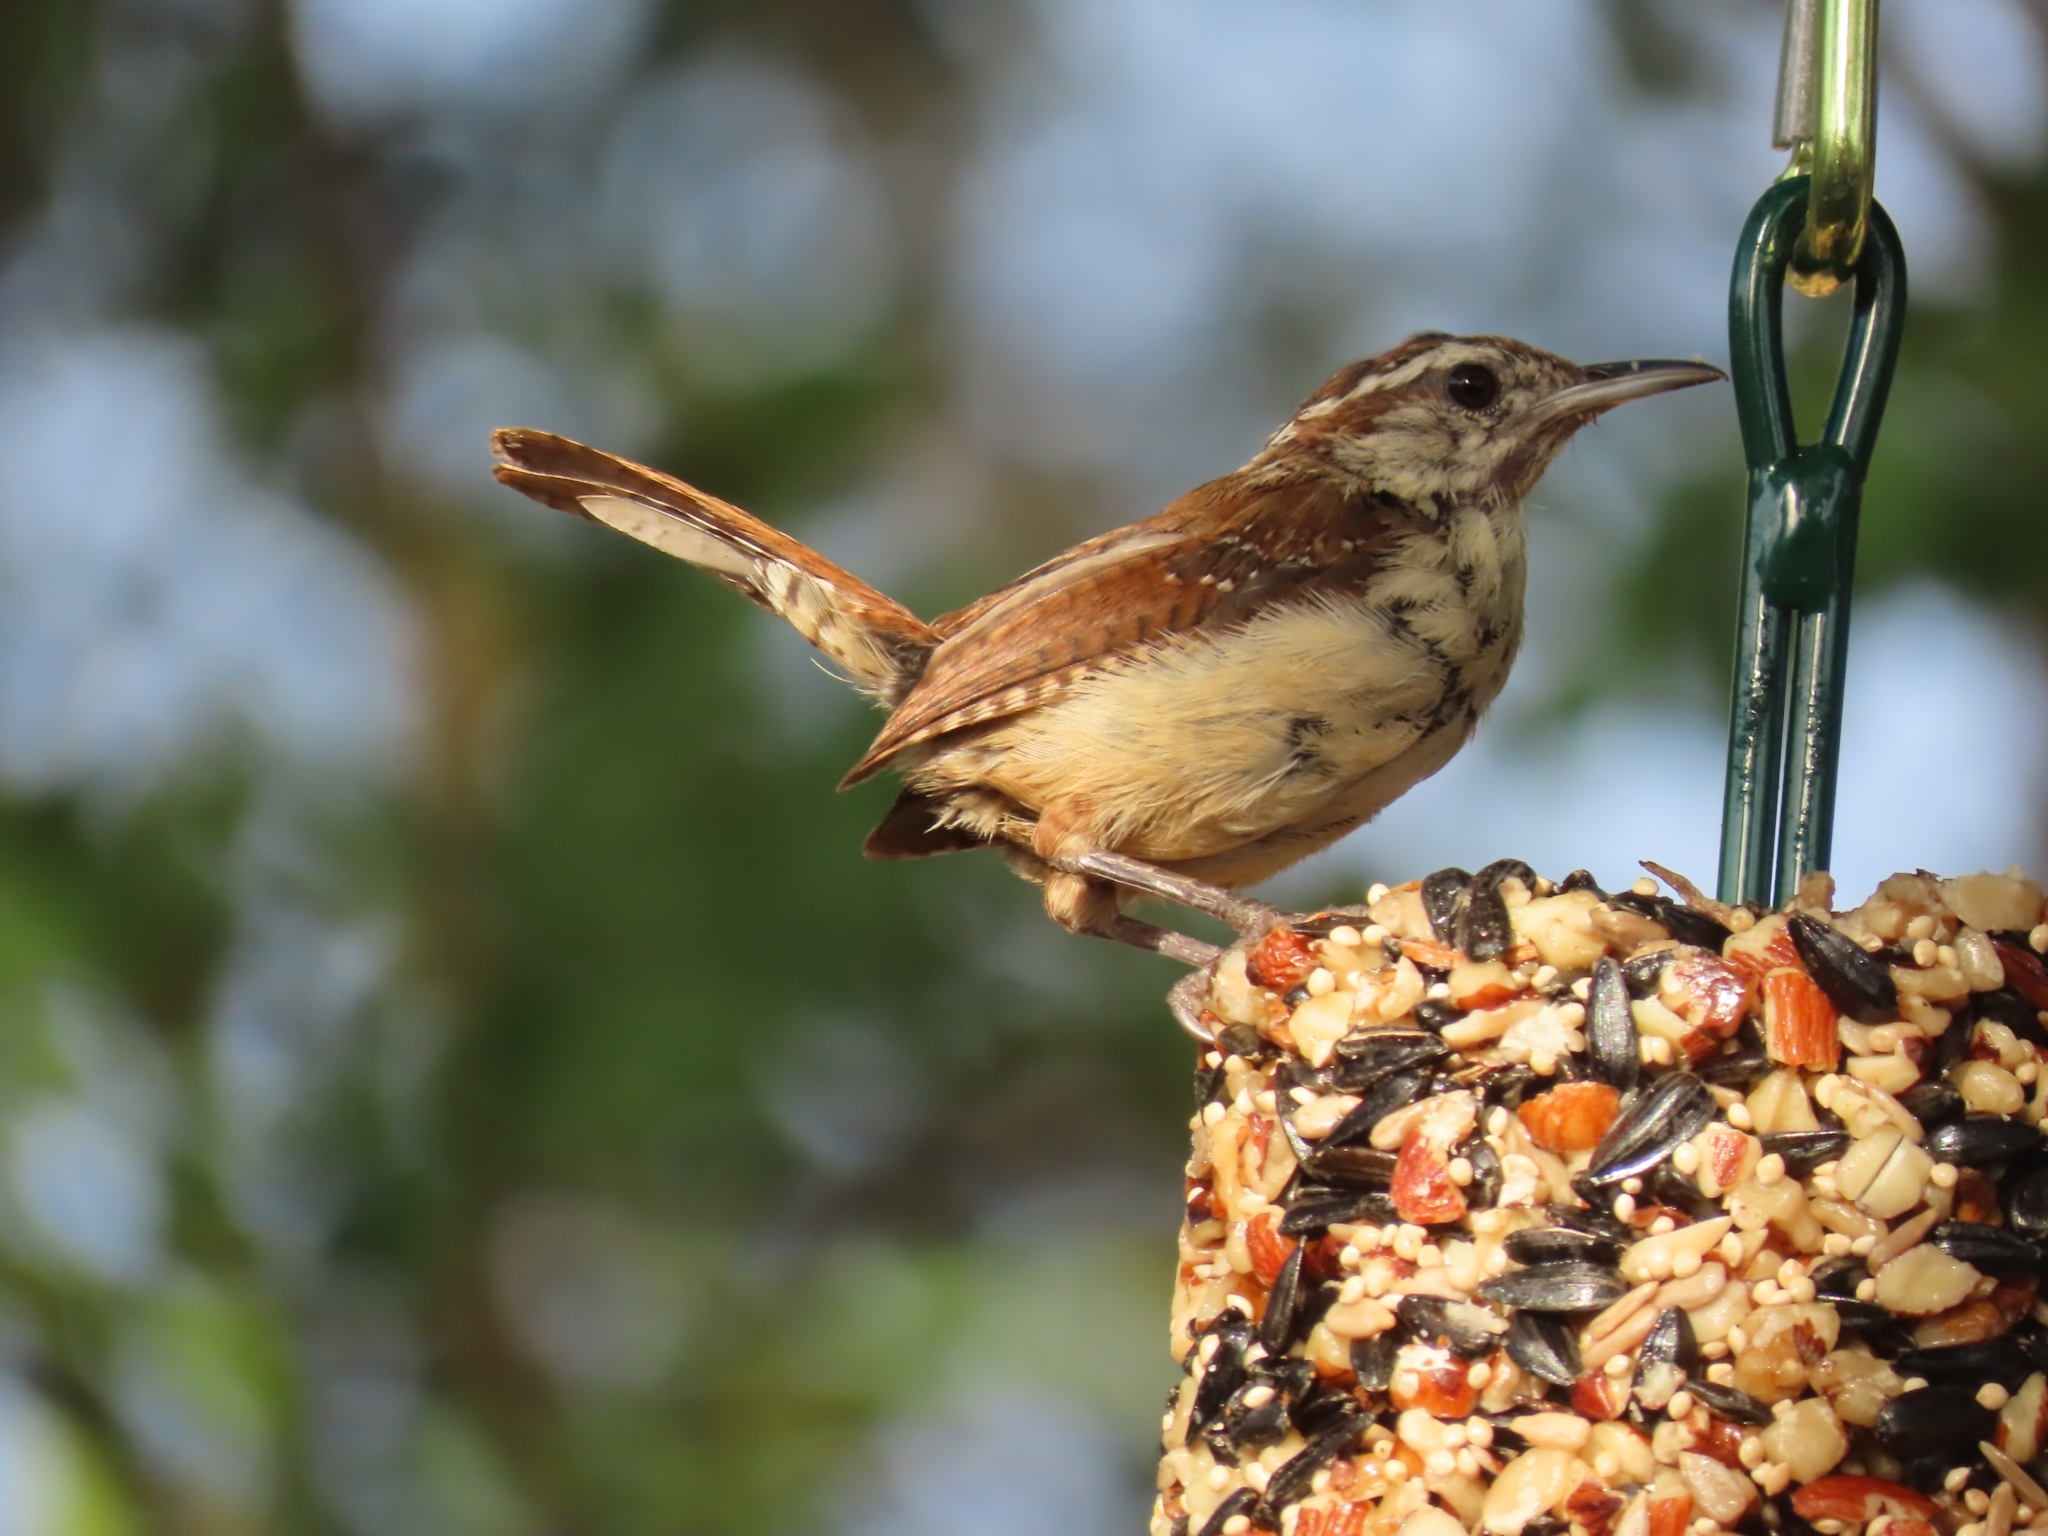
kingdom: Animalia
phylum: Chordata
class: Aves
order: Passeriformes
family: Troglodytidae
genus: Thryothorus
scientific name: Thryothorus ludovicianus
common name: Carolina wren
